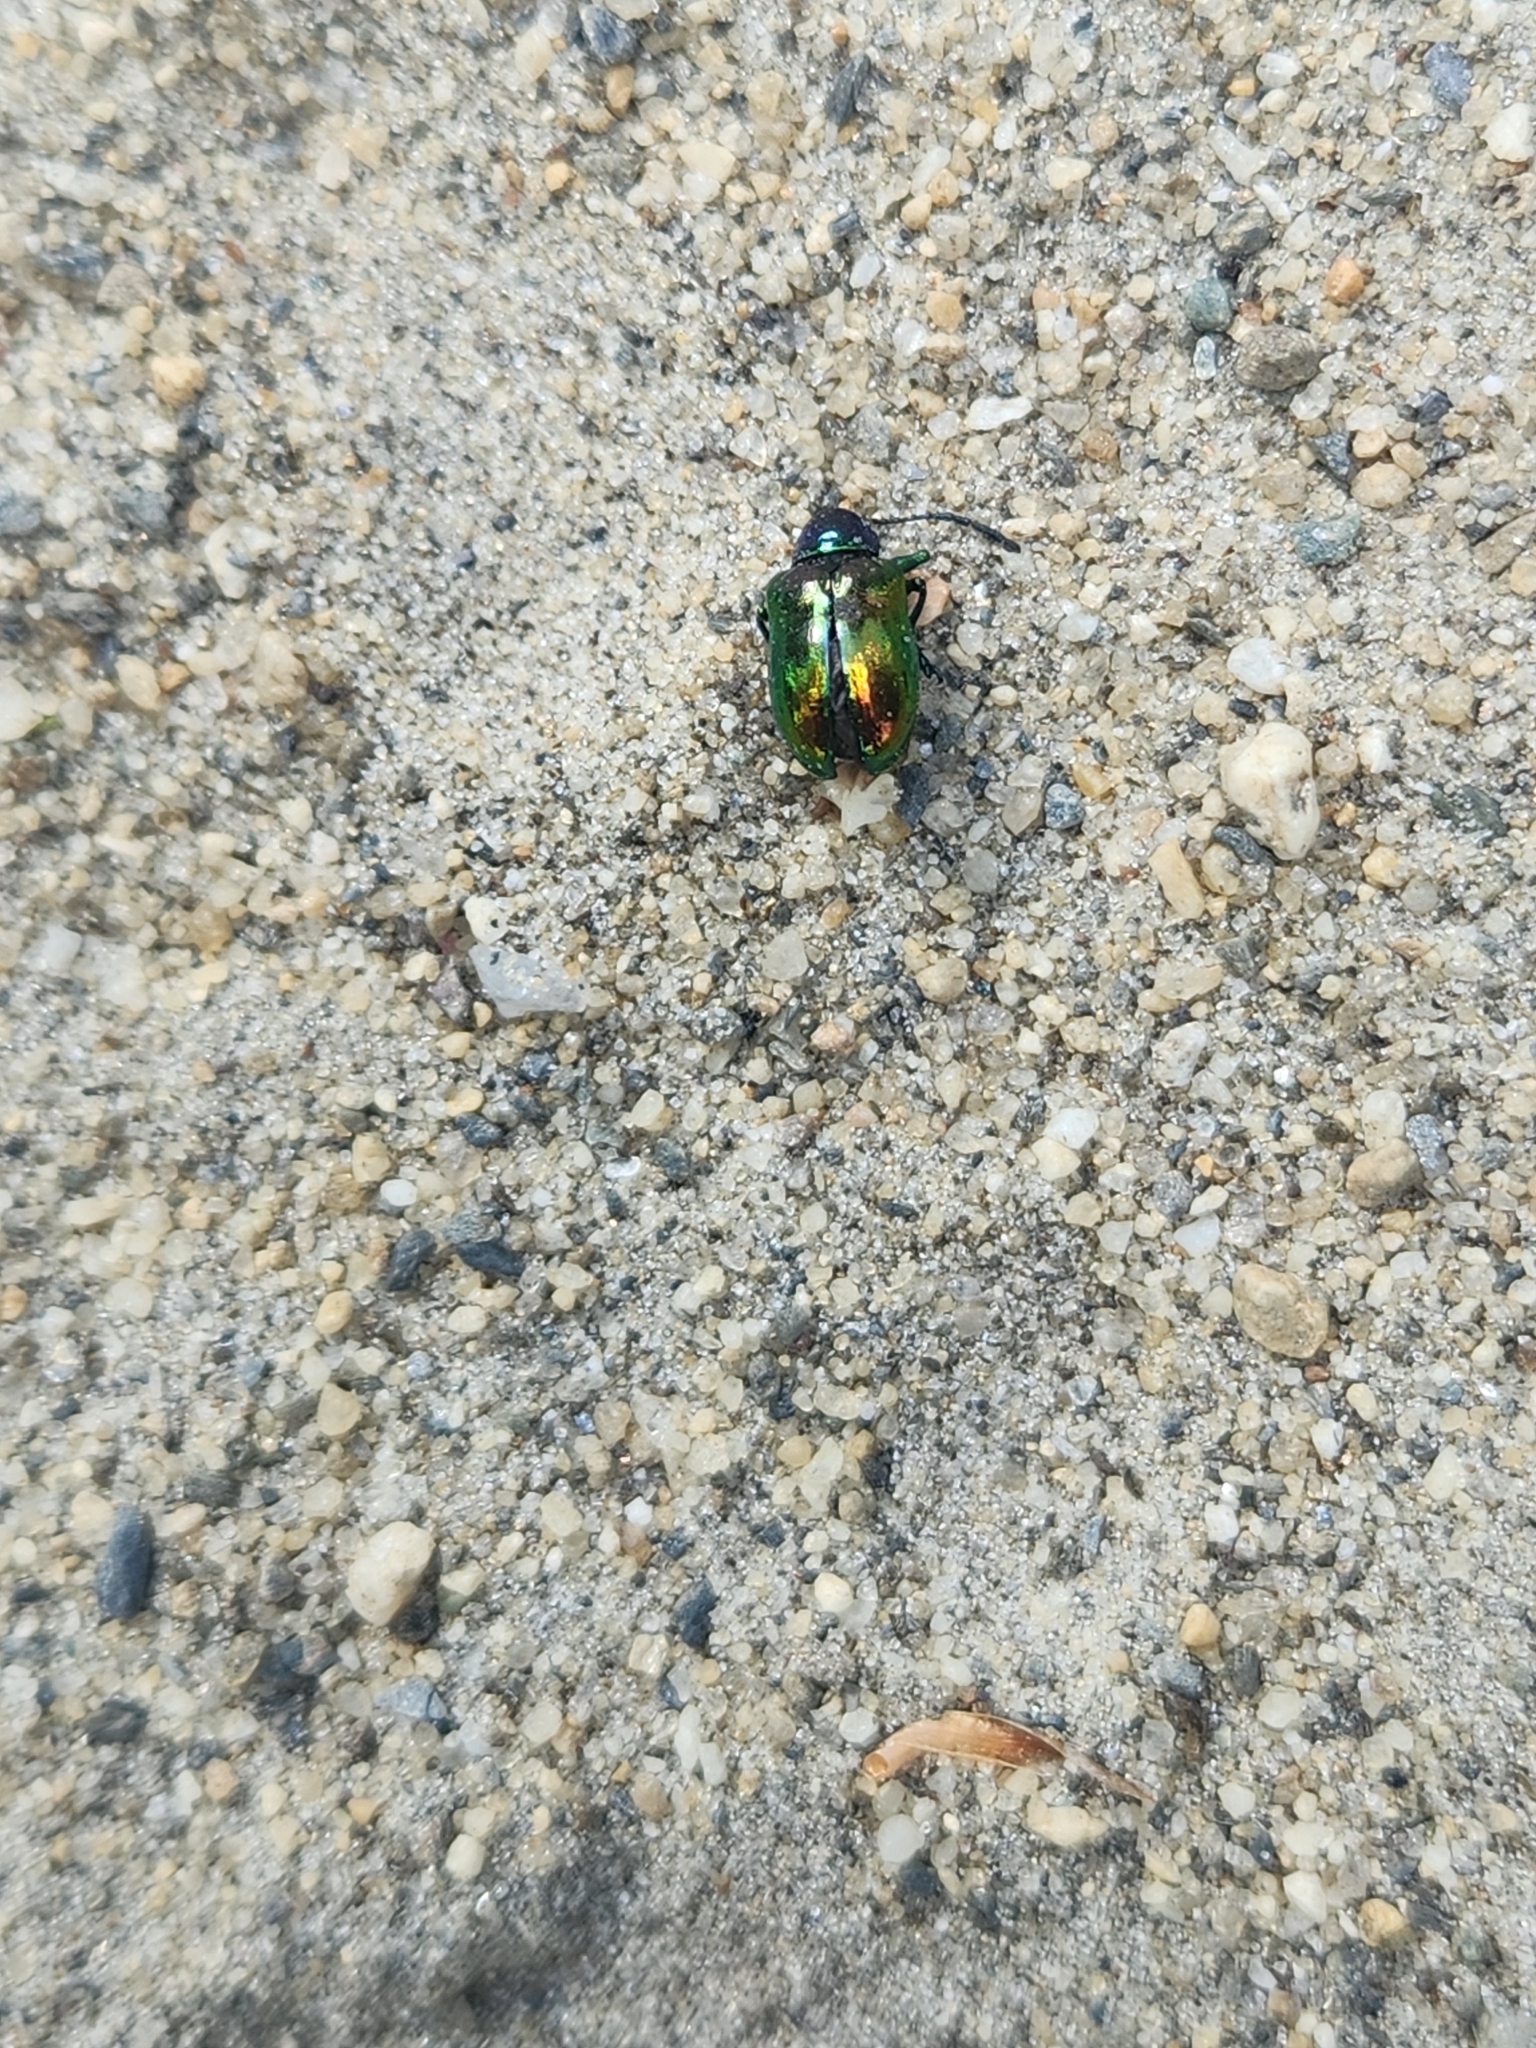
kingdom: Animalia
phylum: Arthropoda
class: Insecta
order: Coleoptera
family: Chrysomelidae
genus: Chrysochus
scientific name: Chrysochus auratus
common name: Dogbane leaf beetle
